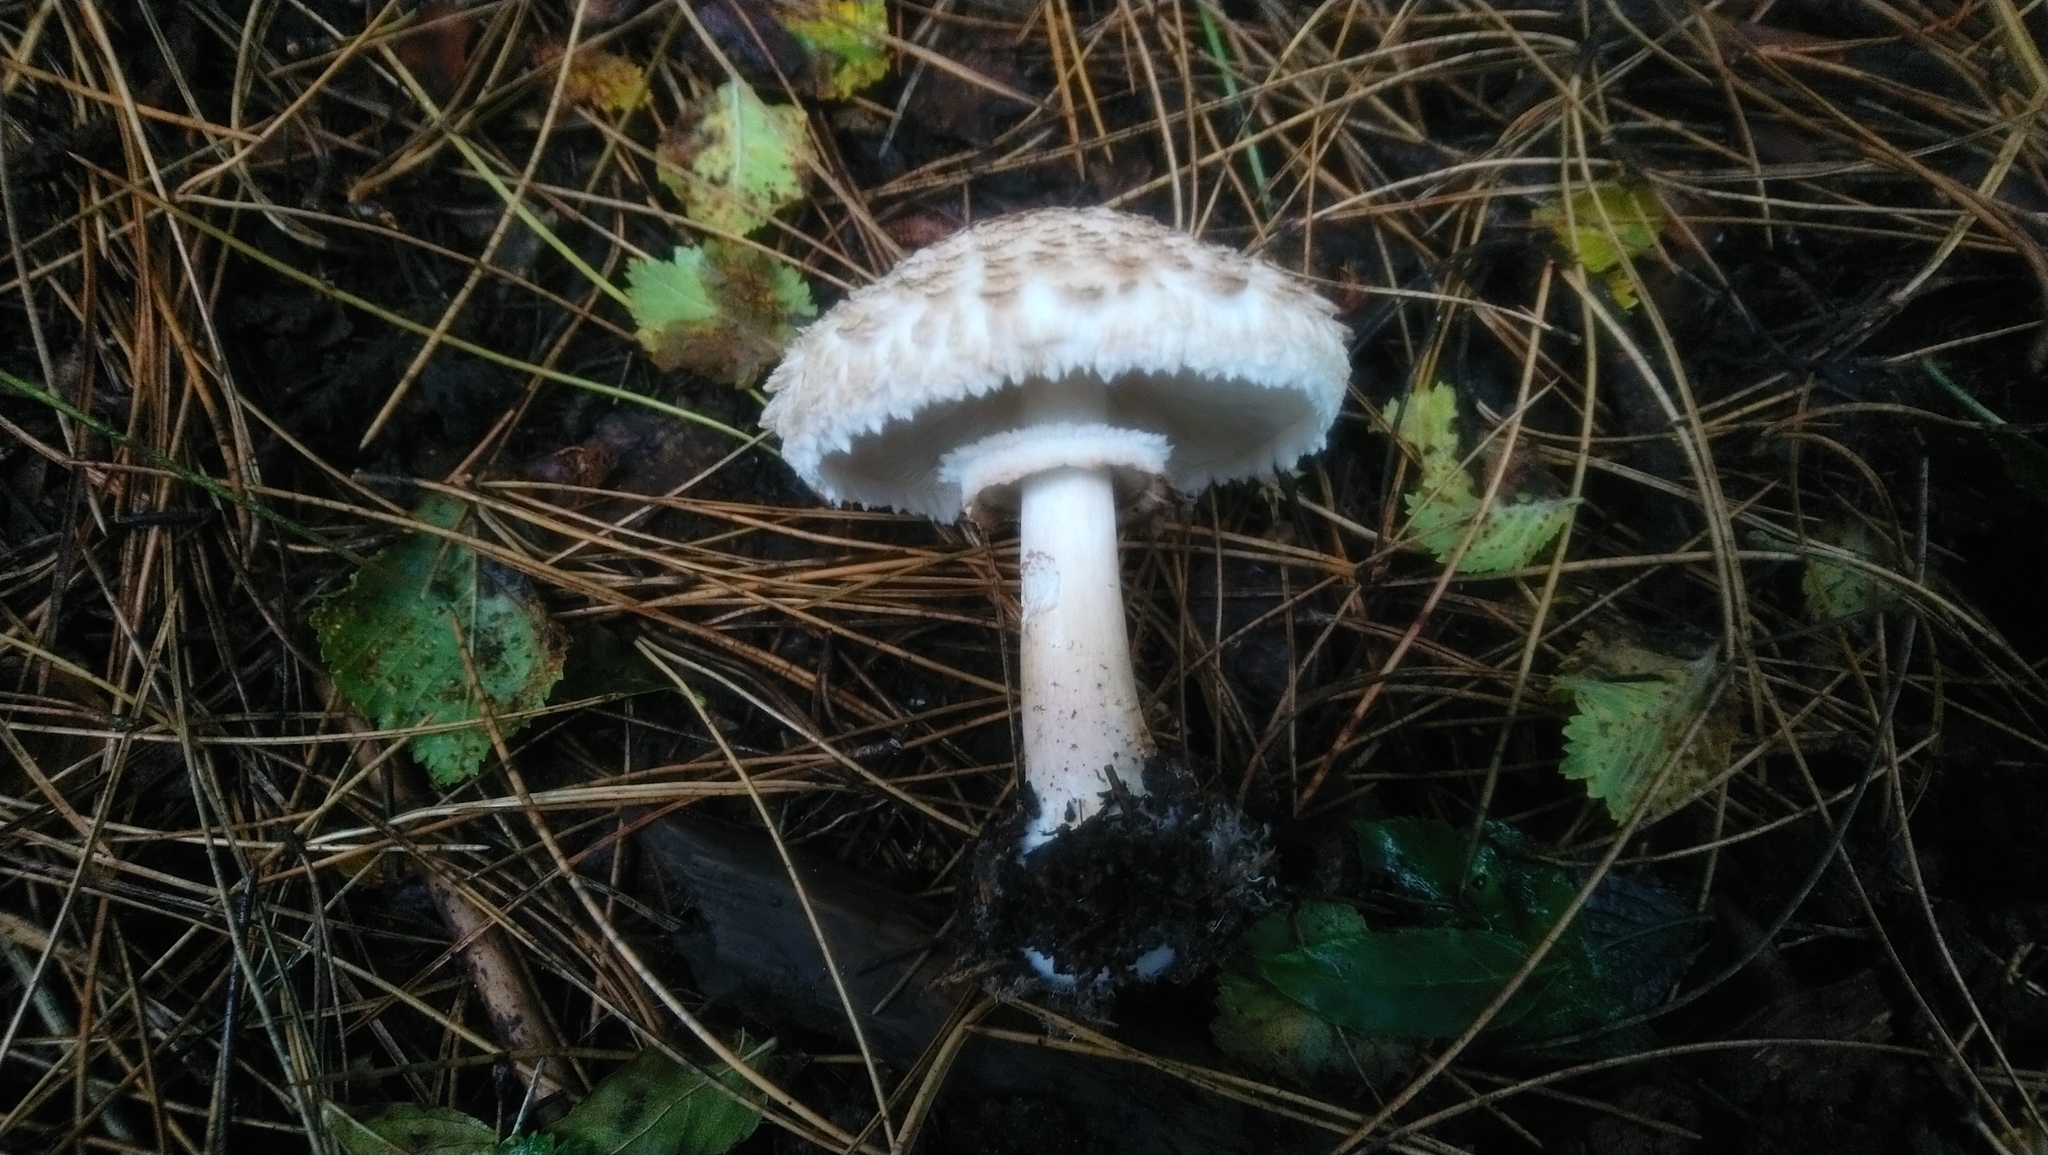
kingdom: Fungi
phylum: Basidiomycota
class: Agaricomycetes
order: Agaricales
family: Agaricaceae
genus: Chlorophyllum
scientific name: Chlorophyllum rhacodes
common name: Shaggy parasol
